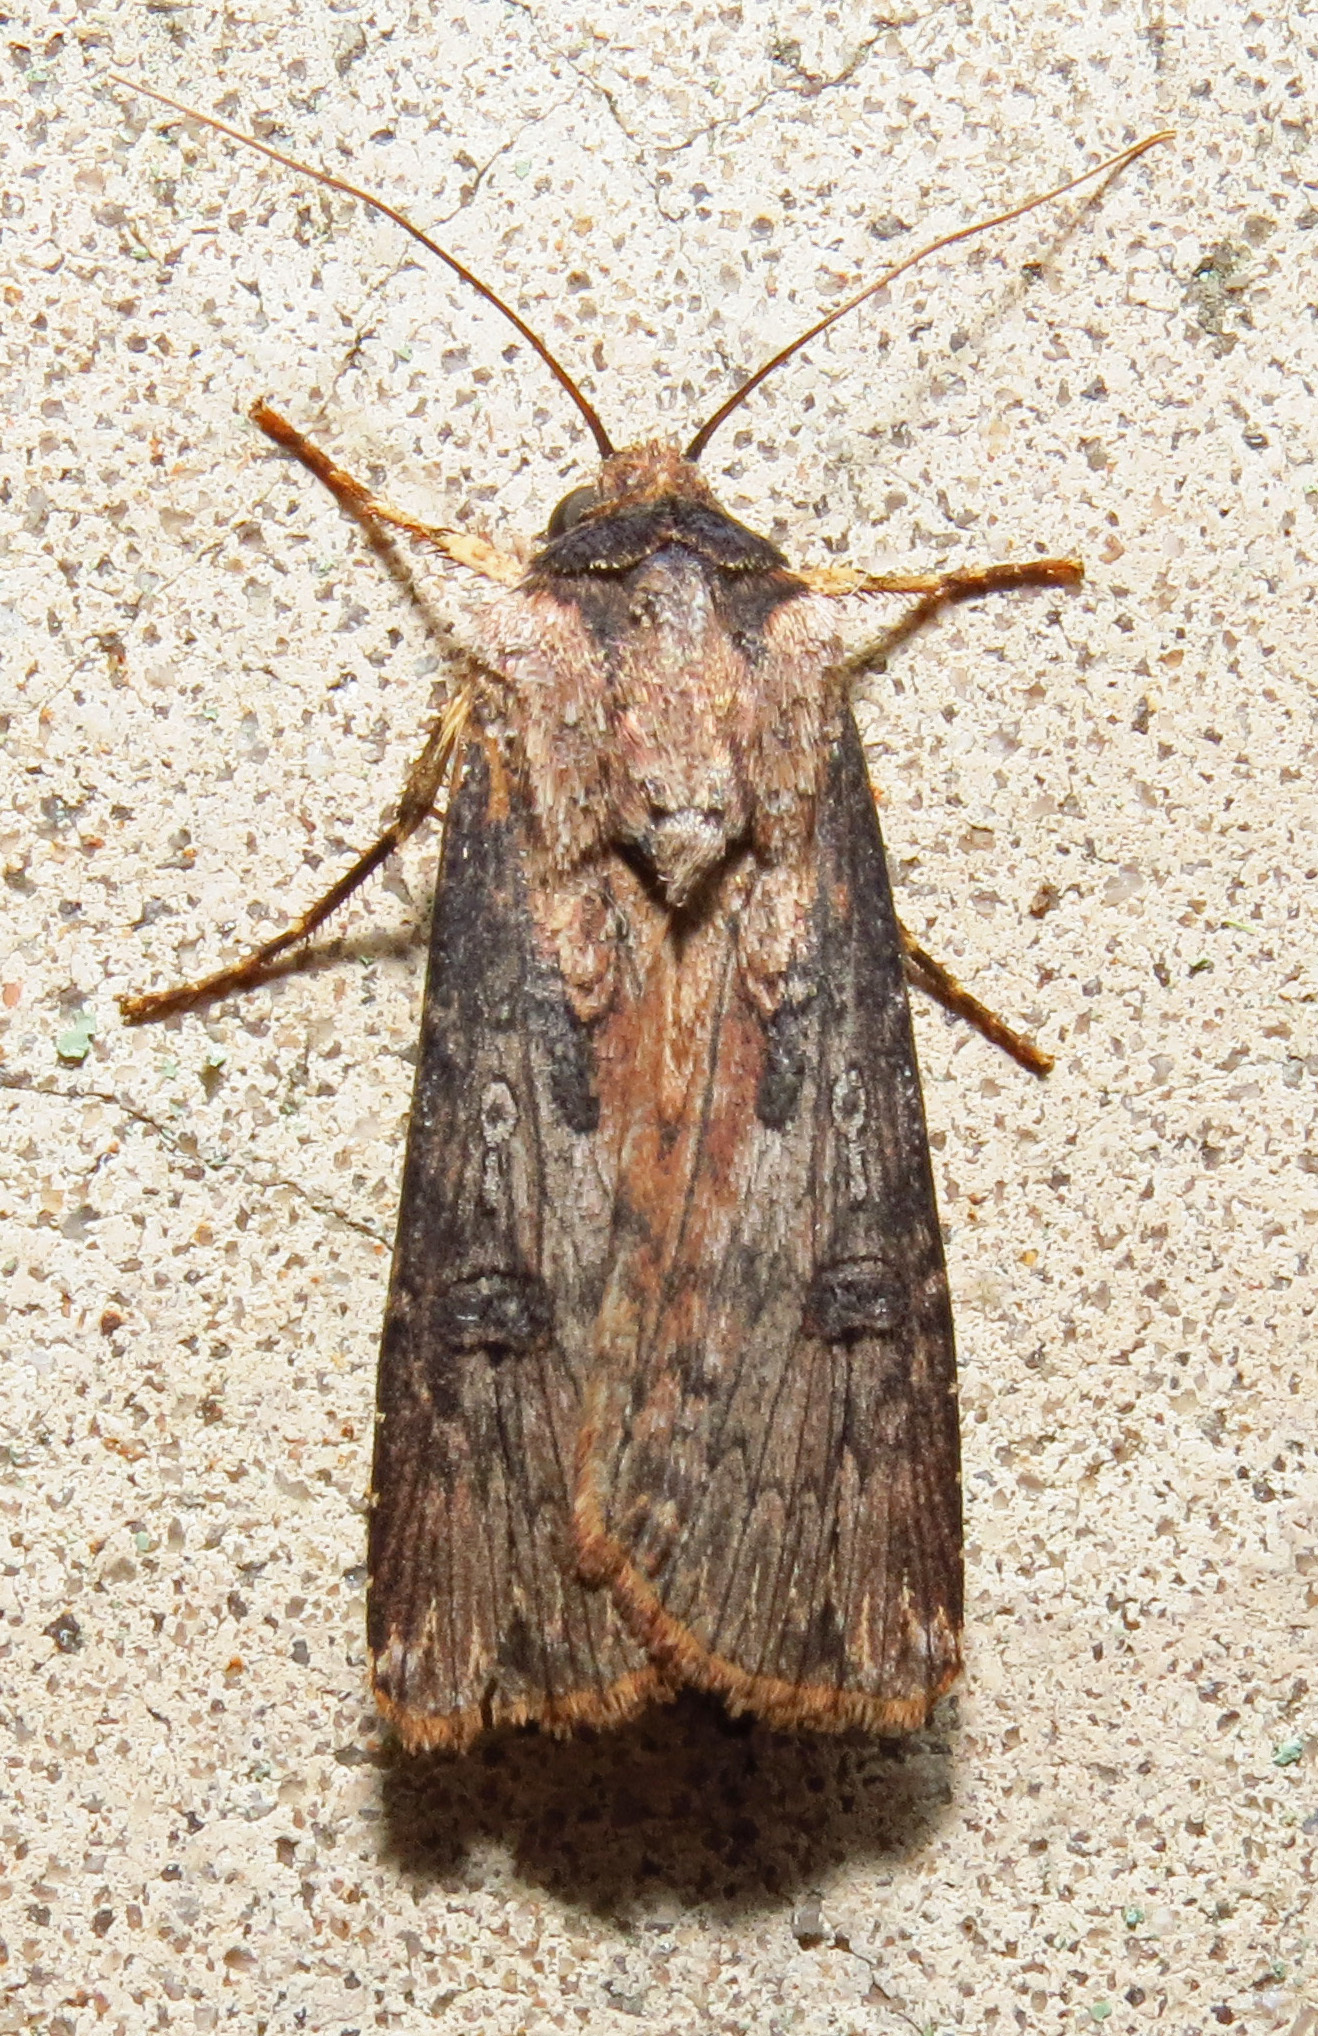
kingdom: Animalia
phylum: Arthropoda
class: Insecta
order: Lepidoptera
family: Noctuidae
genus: Agrotis
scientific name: Agrotis malefida
